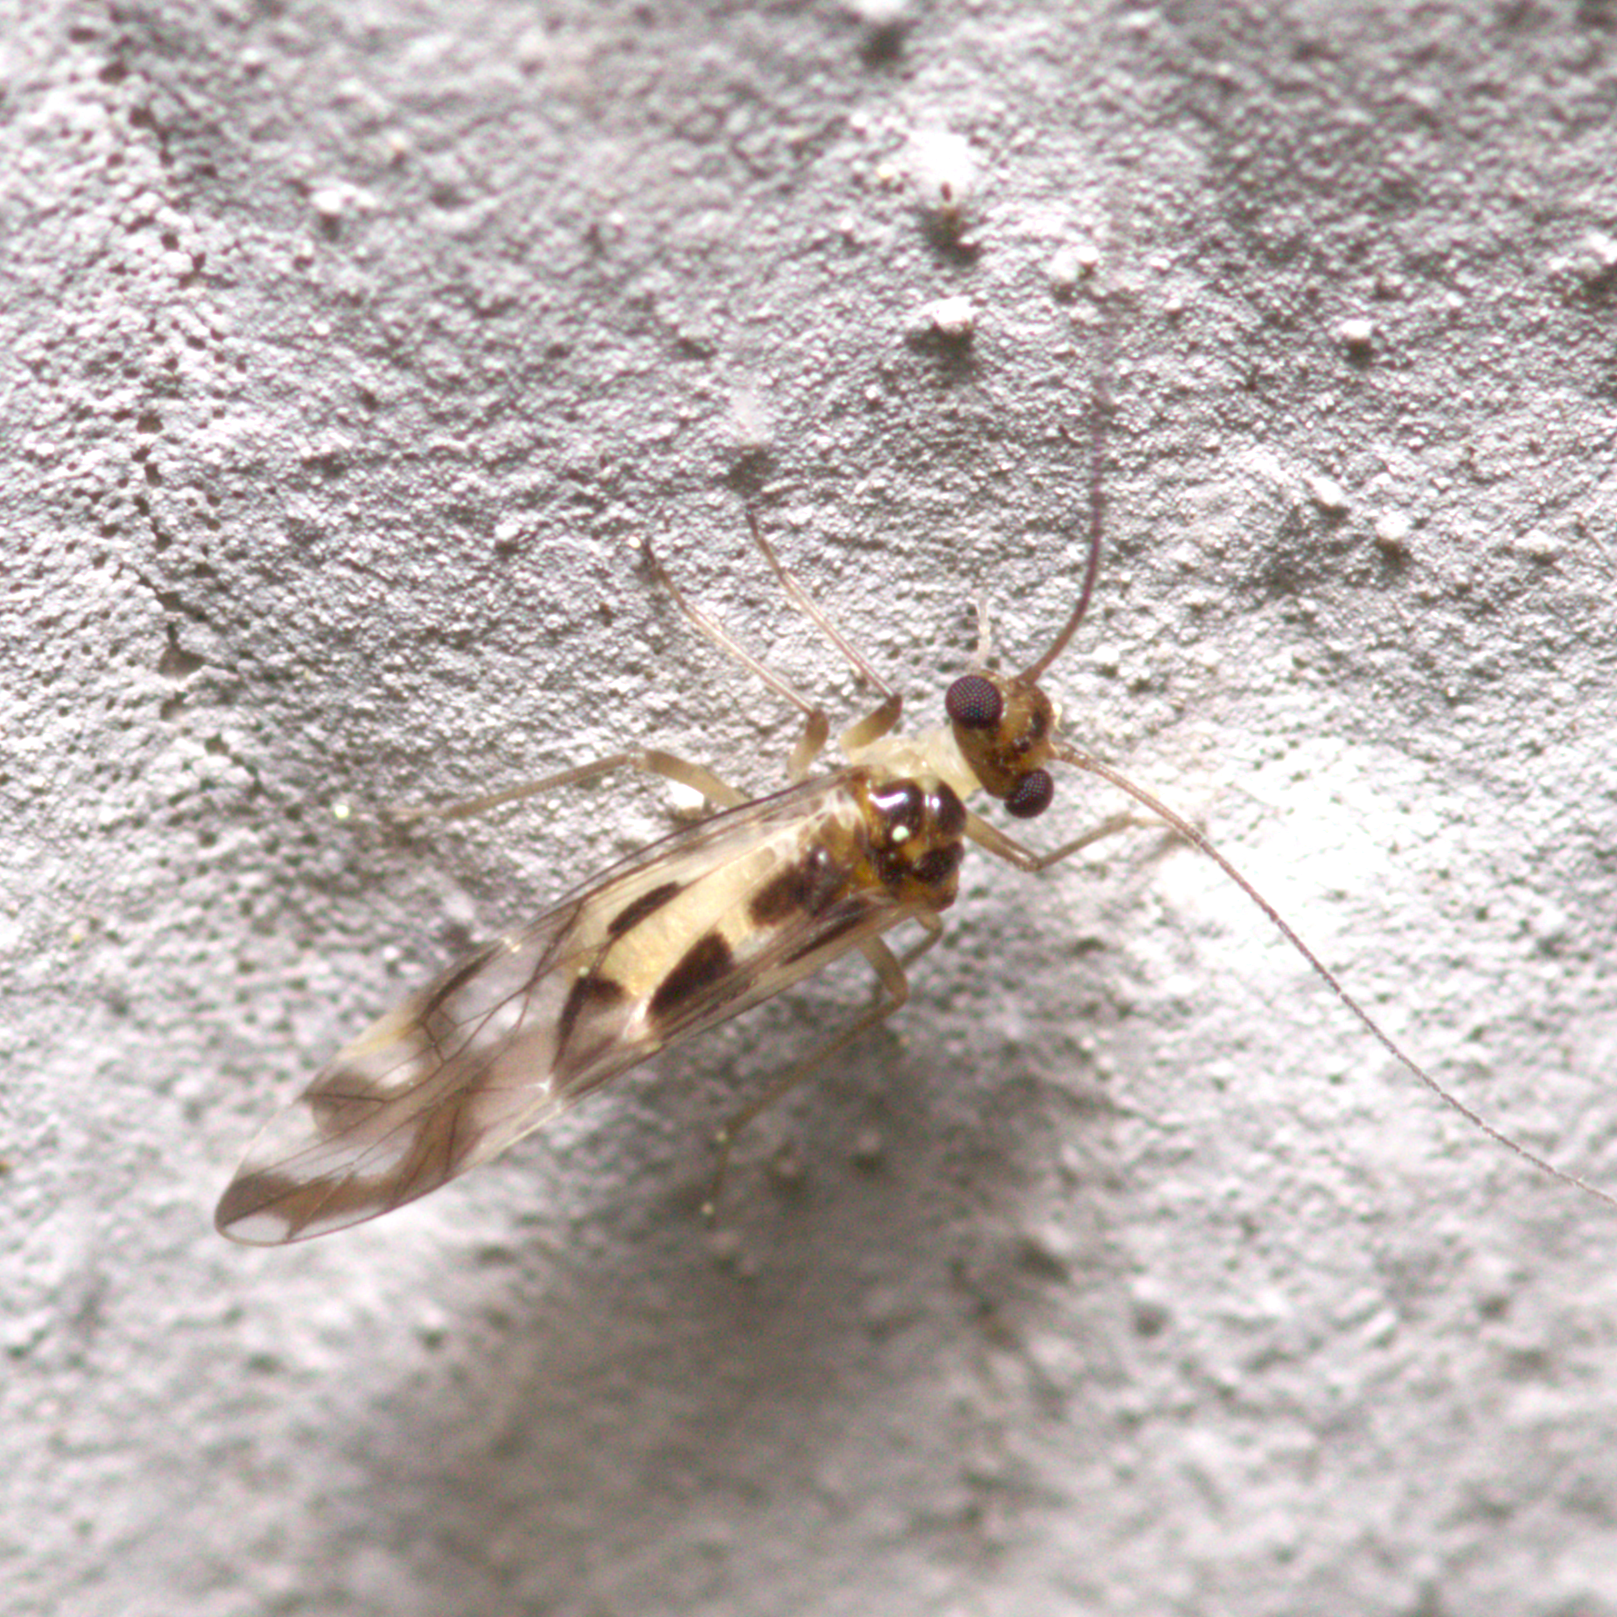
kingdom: Animalia
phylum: Arthropoda
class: Insecta
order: Psocodea
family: Stenopsocidae
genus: Graphopsocus
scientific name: Graphopsocus cruciatus
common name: Lizard bark louse
